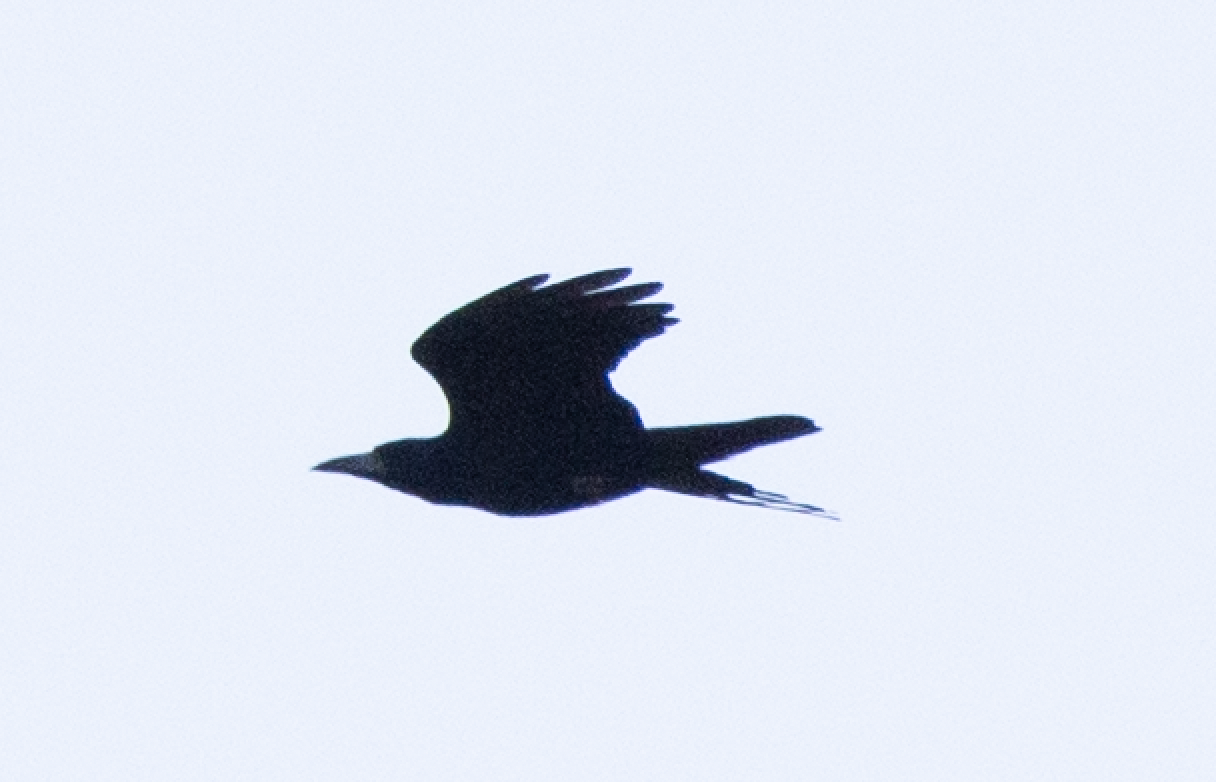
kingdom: Animalia
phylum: Chordata
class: Aves
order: Passeriformes
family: Corvidae
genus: Corvus
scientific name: Corvus frugilegus
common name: Rook
